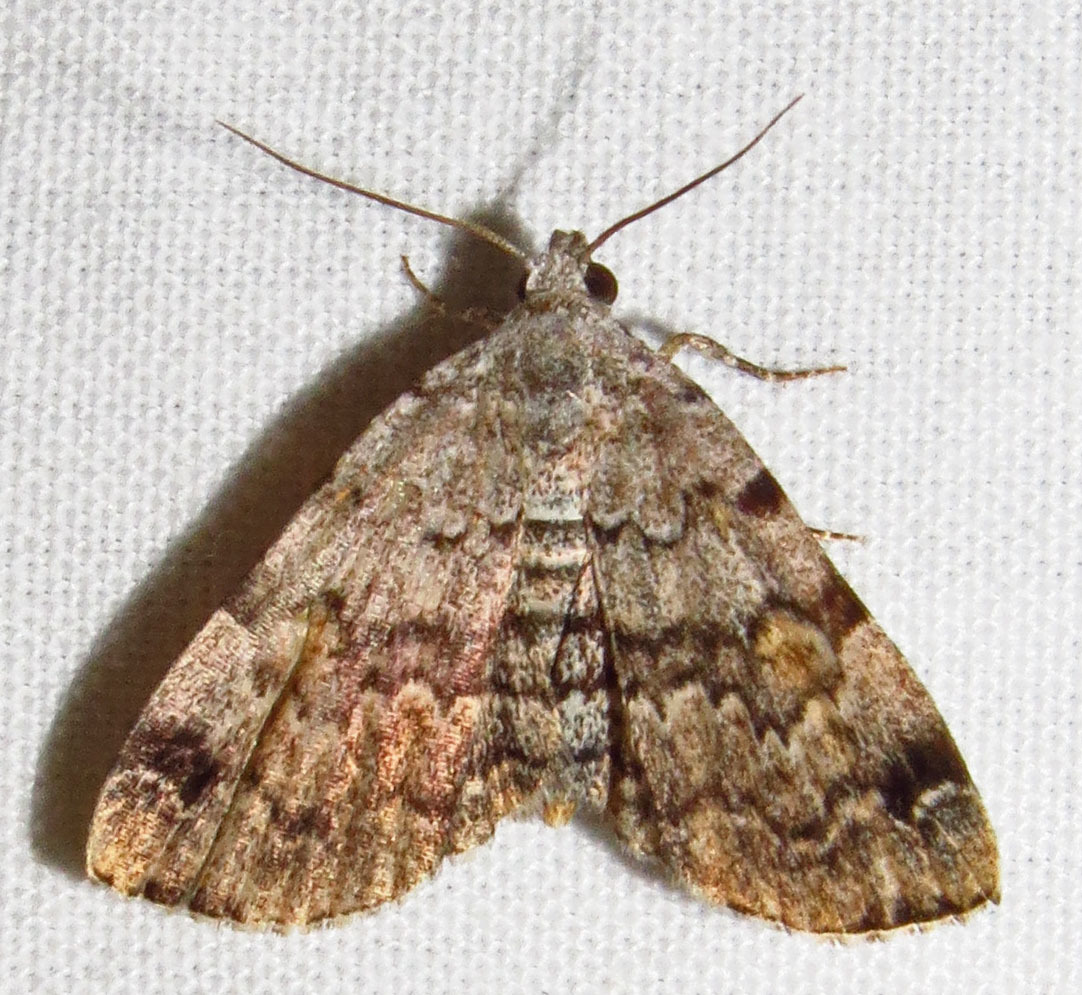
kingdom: Animalia
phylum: Arthropoda
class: Insecta
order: Lepidoptera
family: Erebidae
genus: Idia
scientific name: Idia americalis
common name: American idia moth
